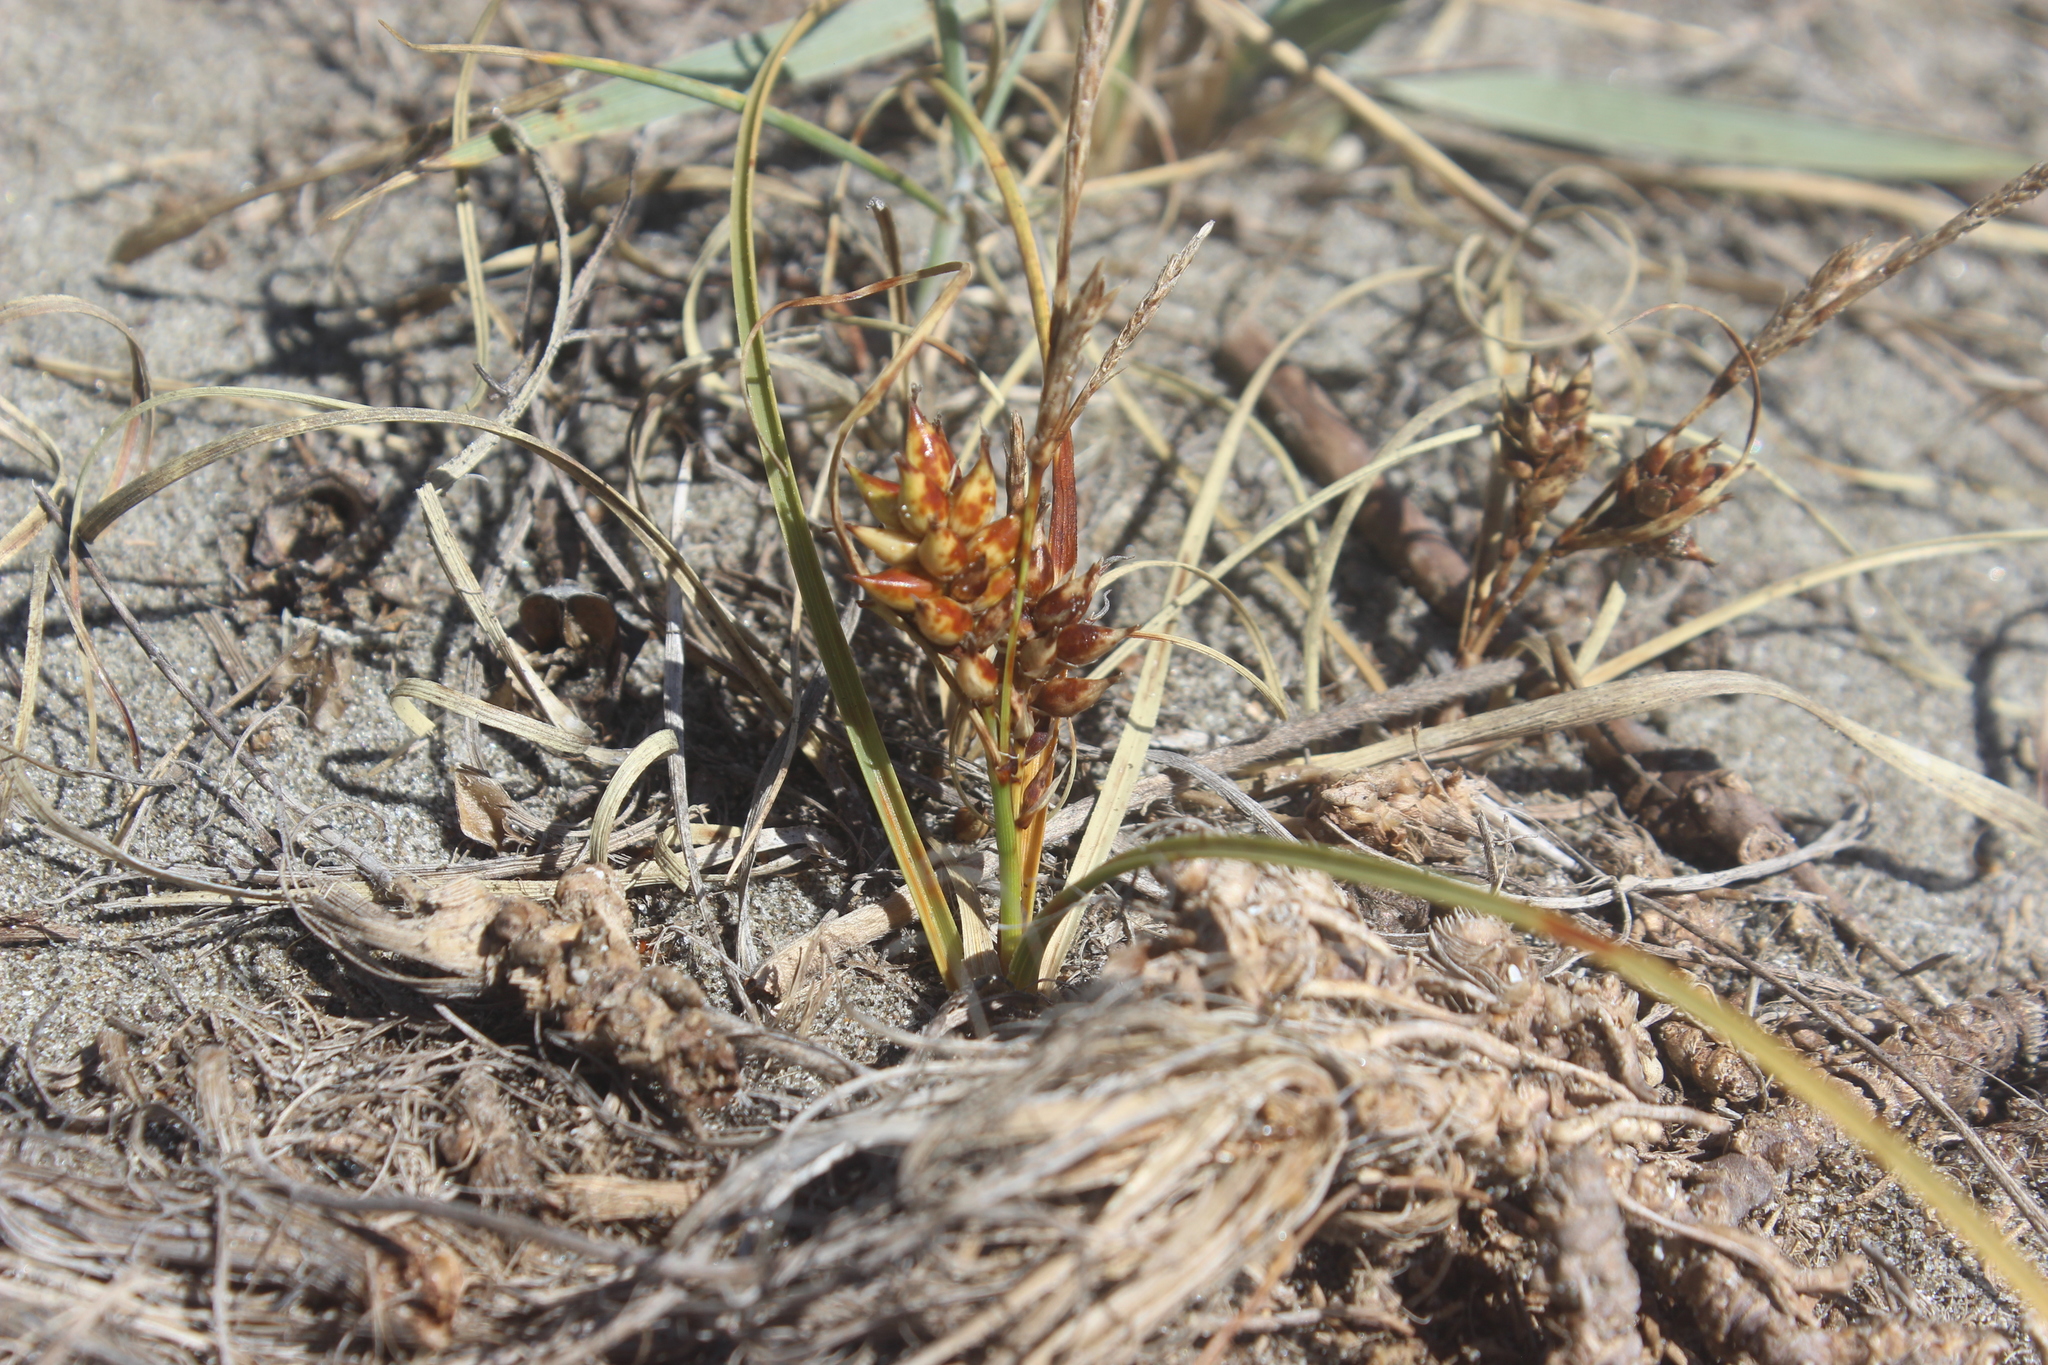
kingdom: Plantae
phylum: Tracheophyta
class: Liliopsida
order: Poales
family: Cyperaceae
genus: Carex
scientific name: Carex pumila
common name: Dwarf sedge
